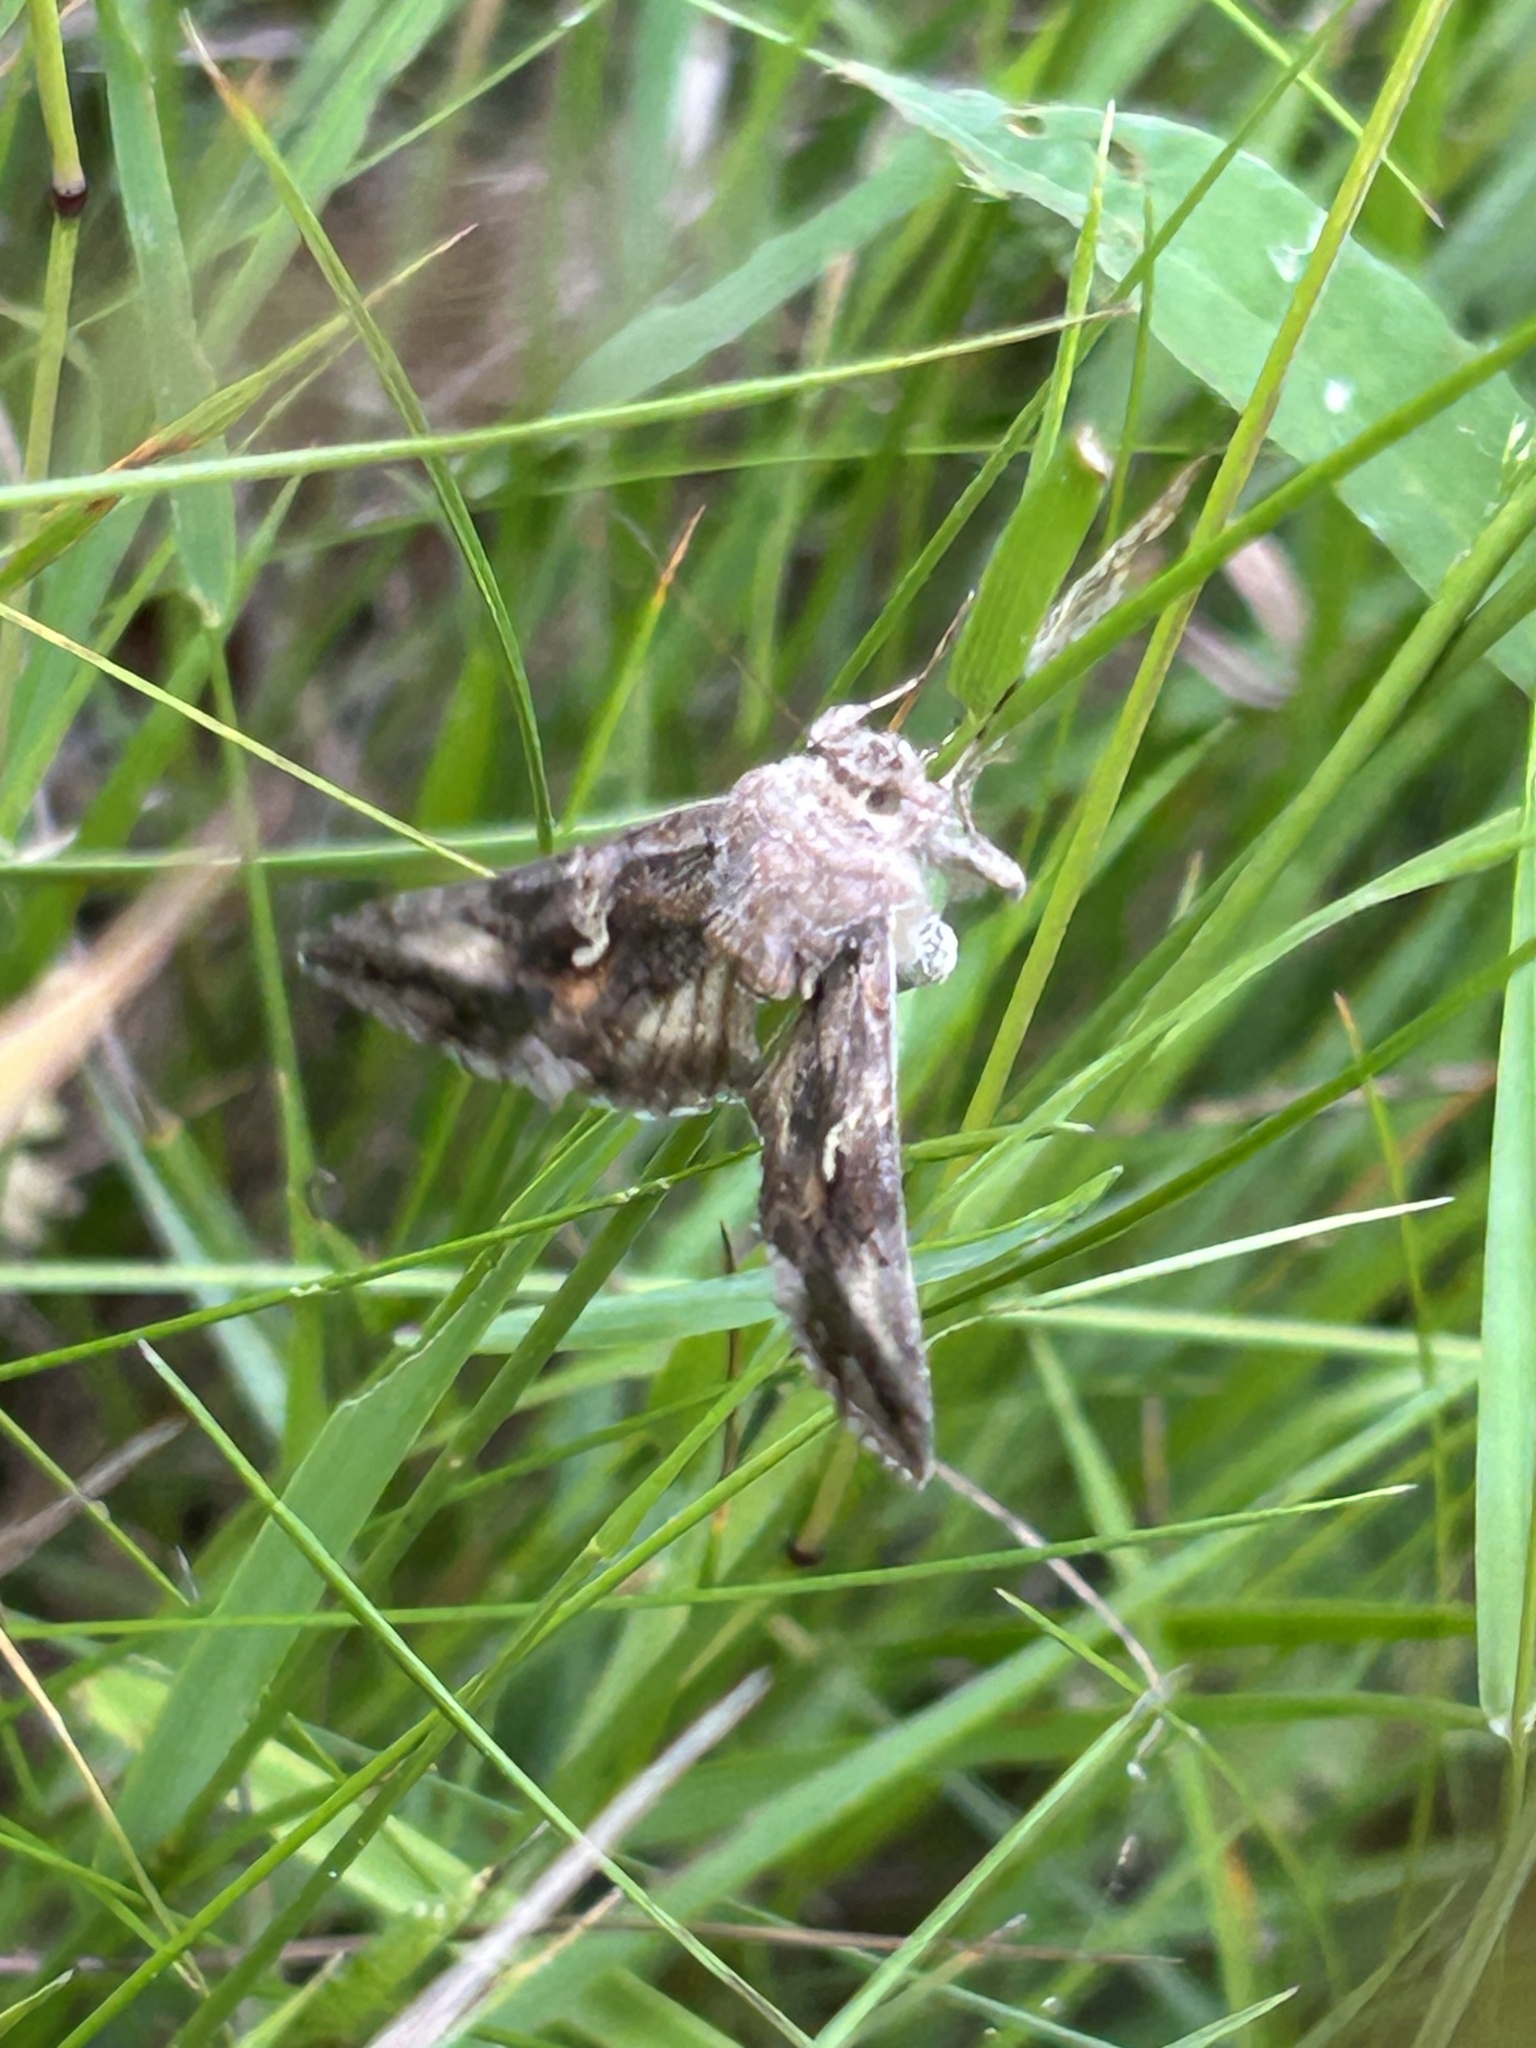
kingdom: Animalia
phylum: Arthropoda
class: Insecta
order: Lepidoptera
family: Noctuidae
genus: Autographa
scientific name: Autographa gamma
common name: Silver y
